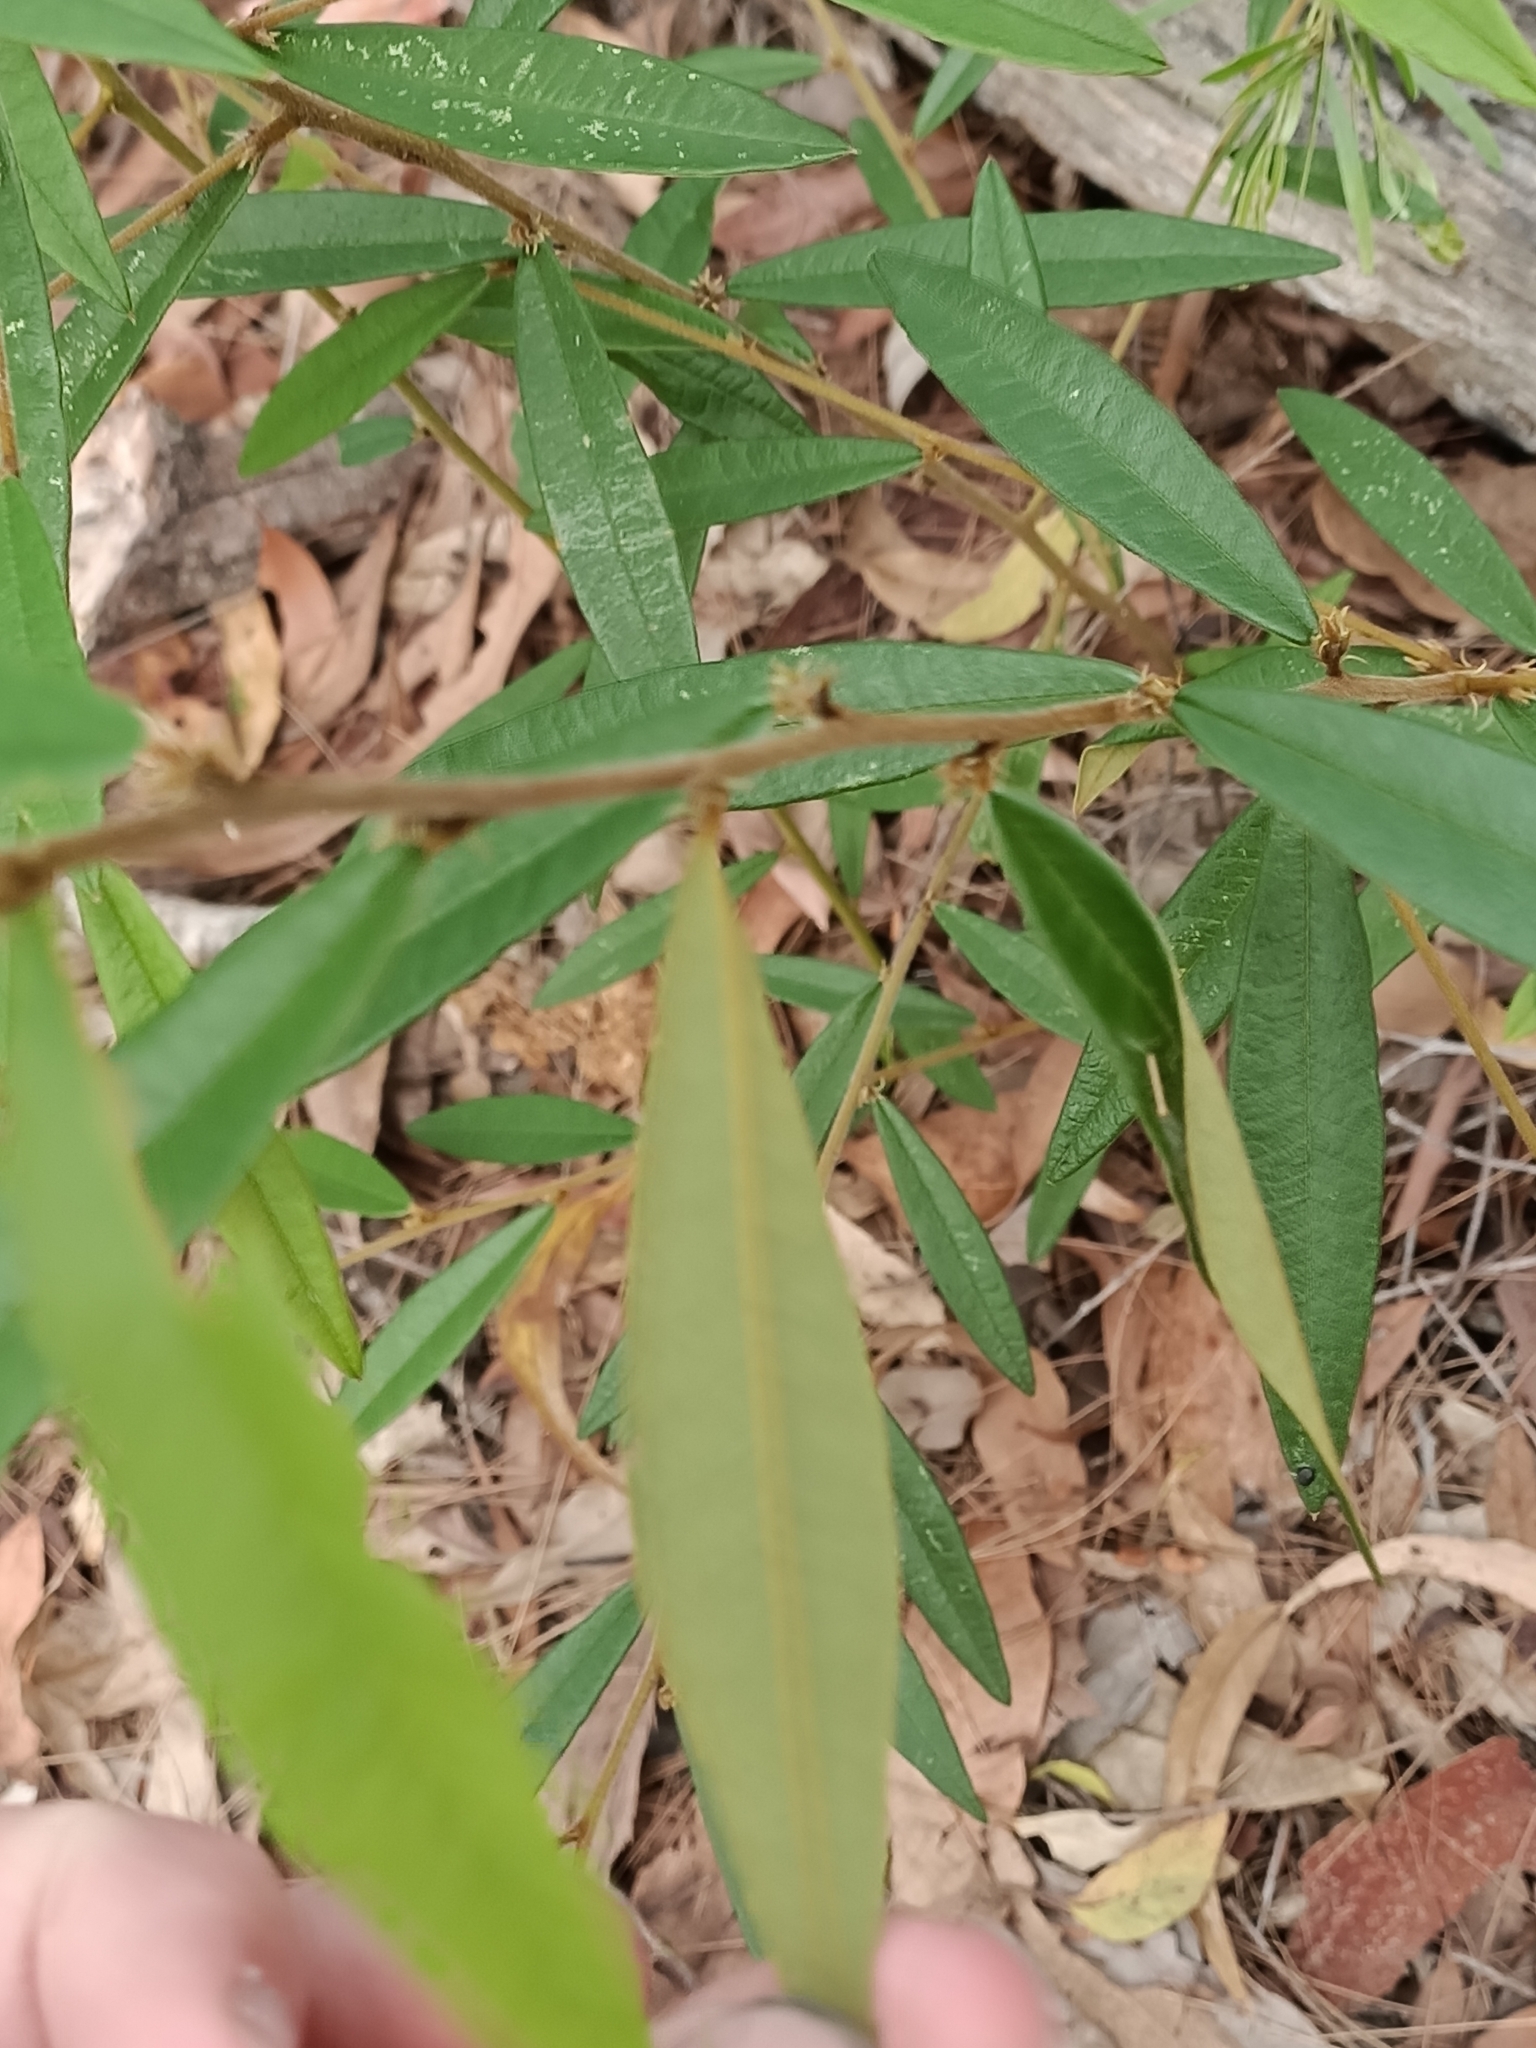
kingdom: Plantae
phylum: Tracheophyta
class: Magnoliopsida
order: Fabales
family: Fabaceae
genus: Hovea
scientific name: Hovea acutifolia
